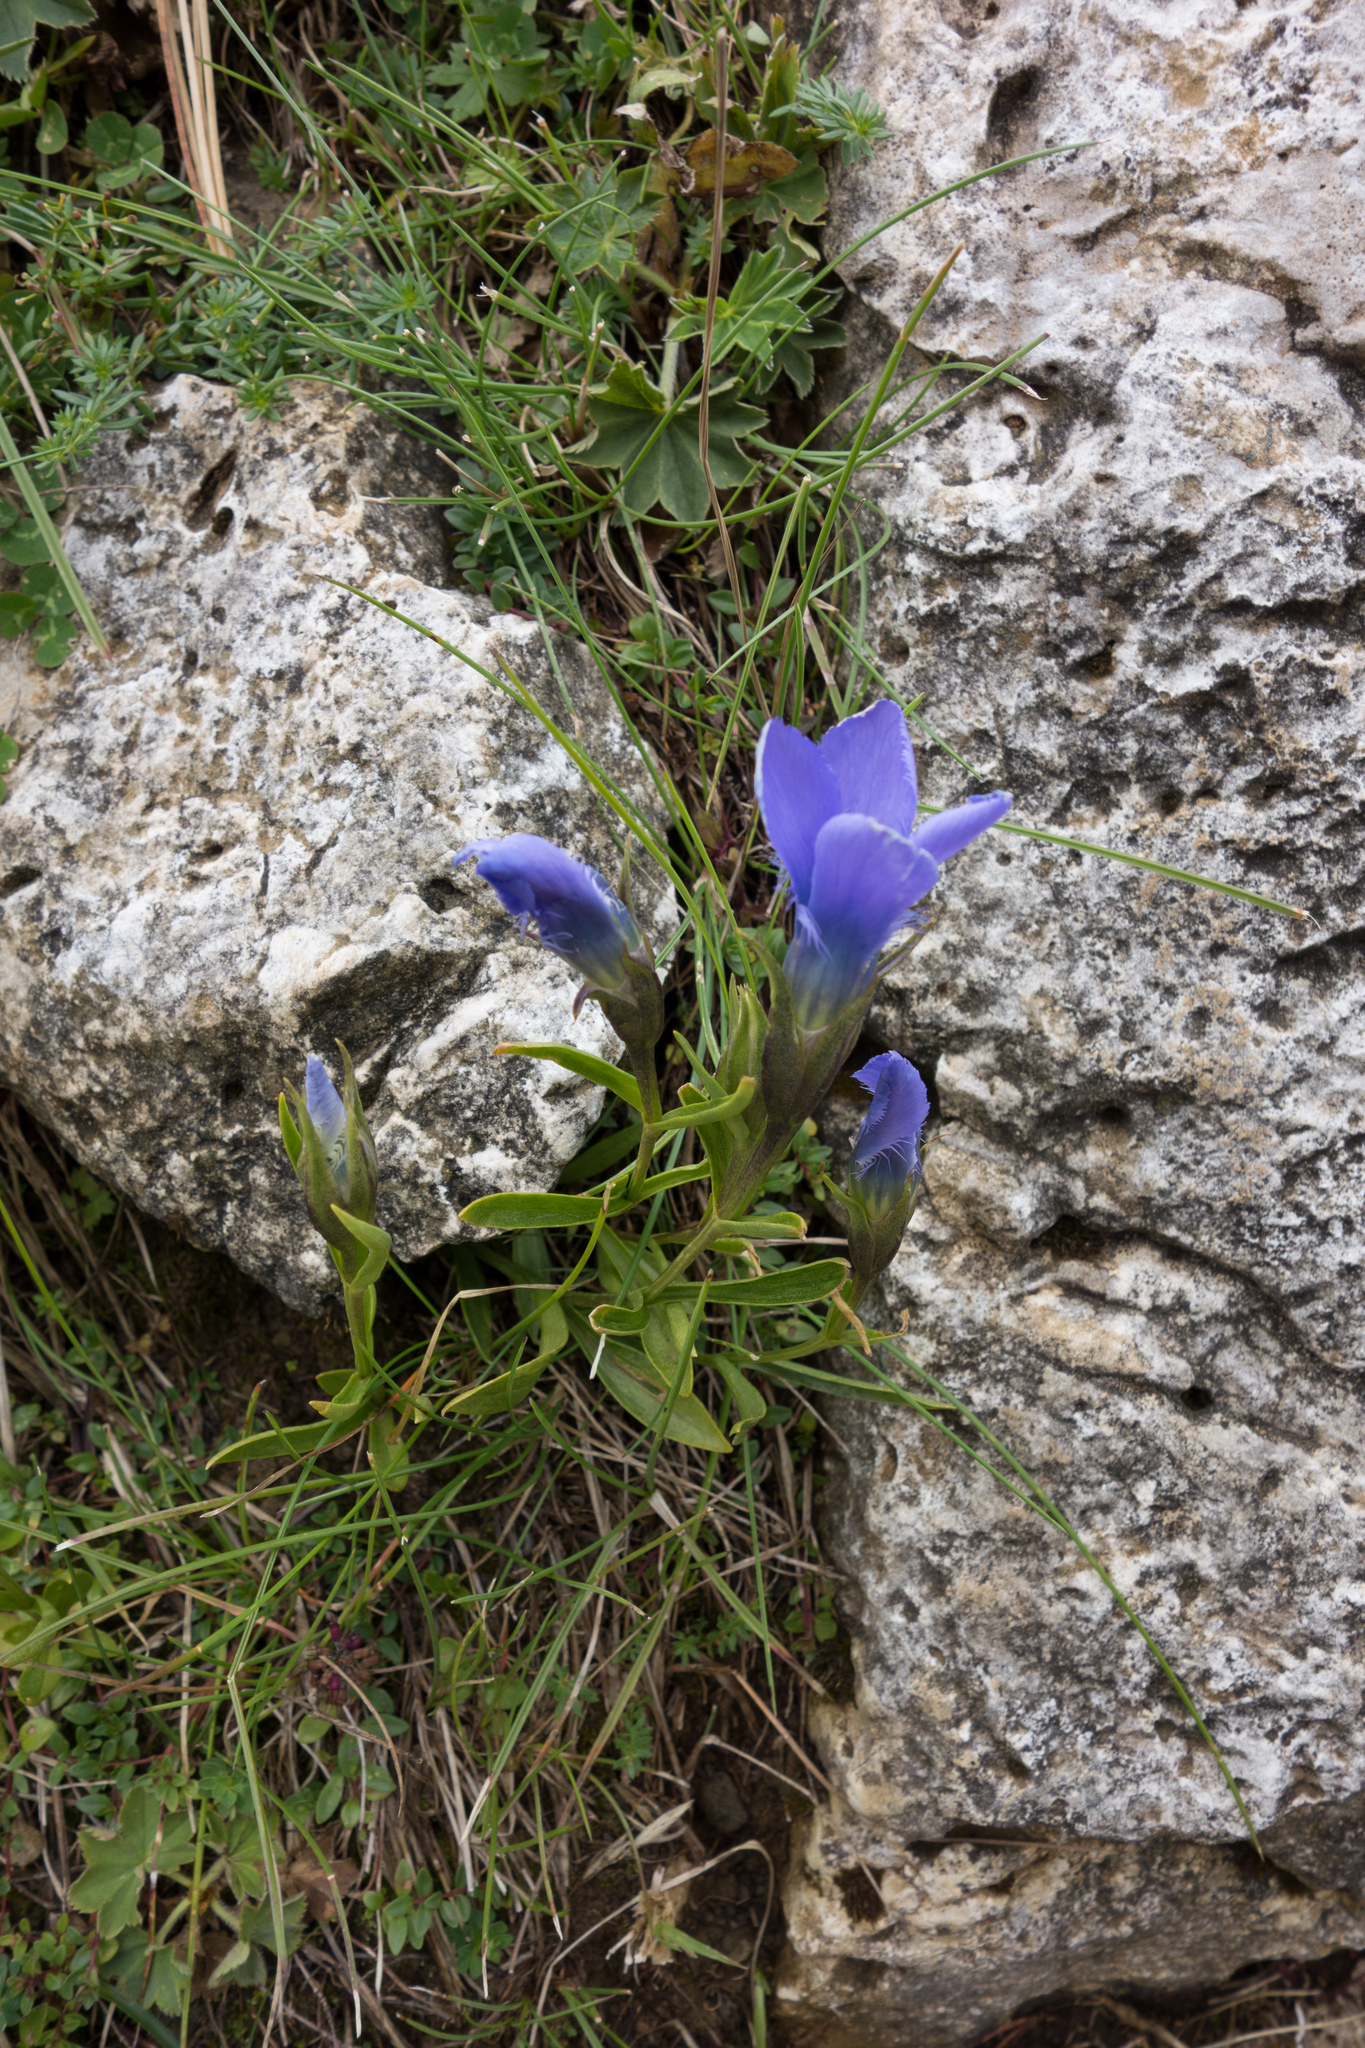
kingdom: Plantae
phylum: Tracheophyta
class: Magnoliopsida
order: Gentianales
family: Gentianaceae
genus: Gentianopsis
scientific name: Gentianopsis ciliata
